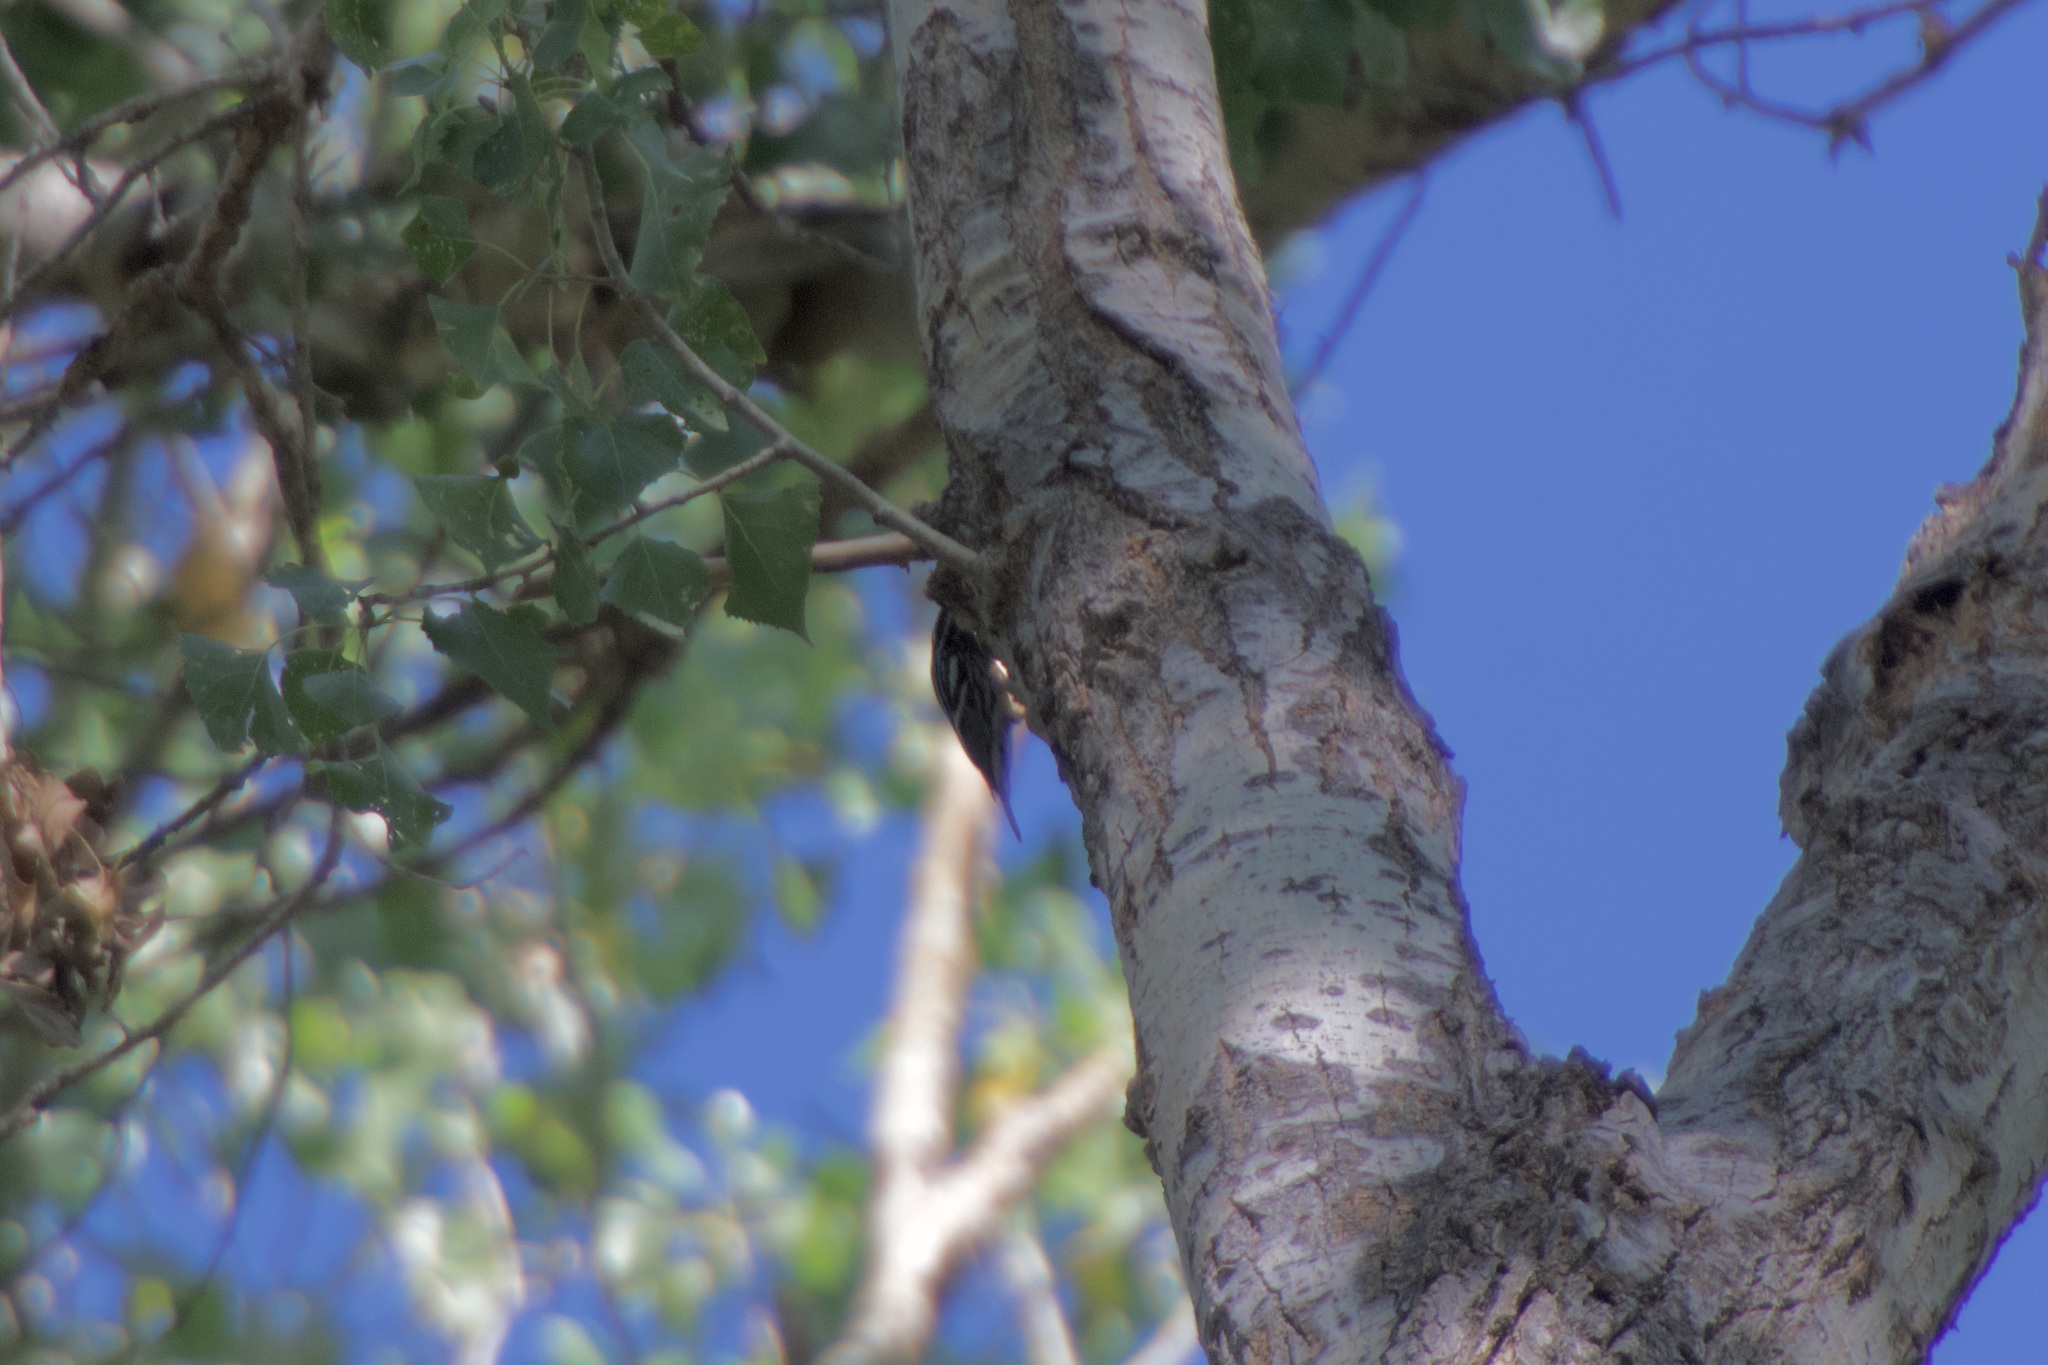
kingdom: Animalia
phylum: Chordata
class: Aves
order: Passeriformes
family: Parulidae
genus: Mniotilta
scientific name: Mniotilta varia
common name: Black-and-white warbler
